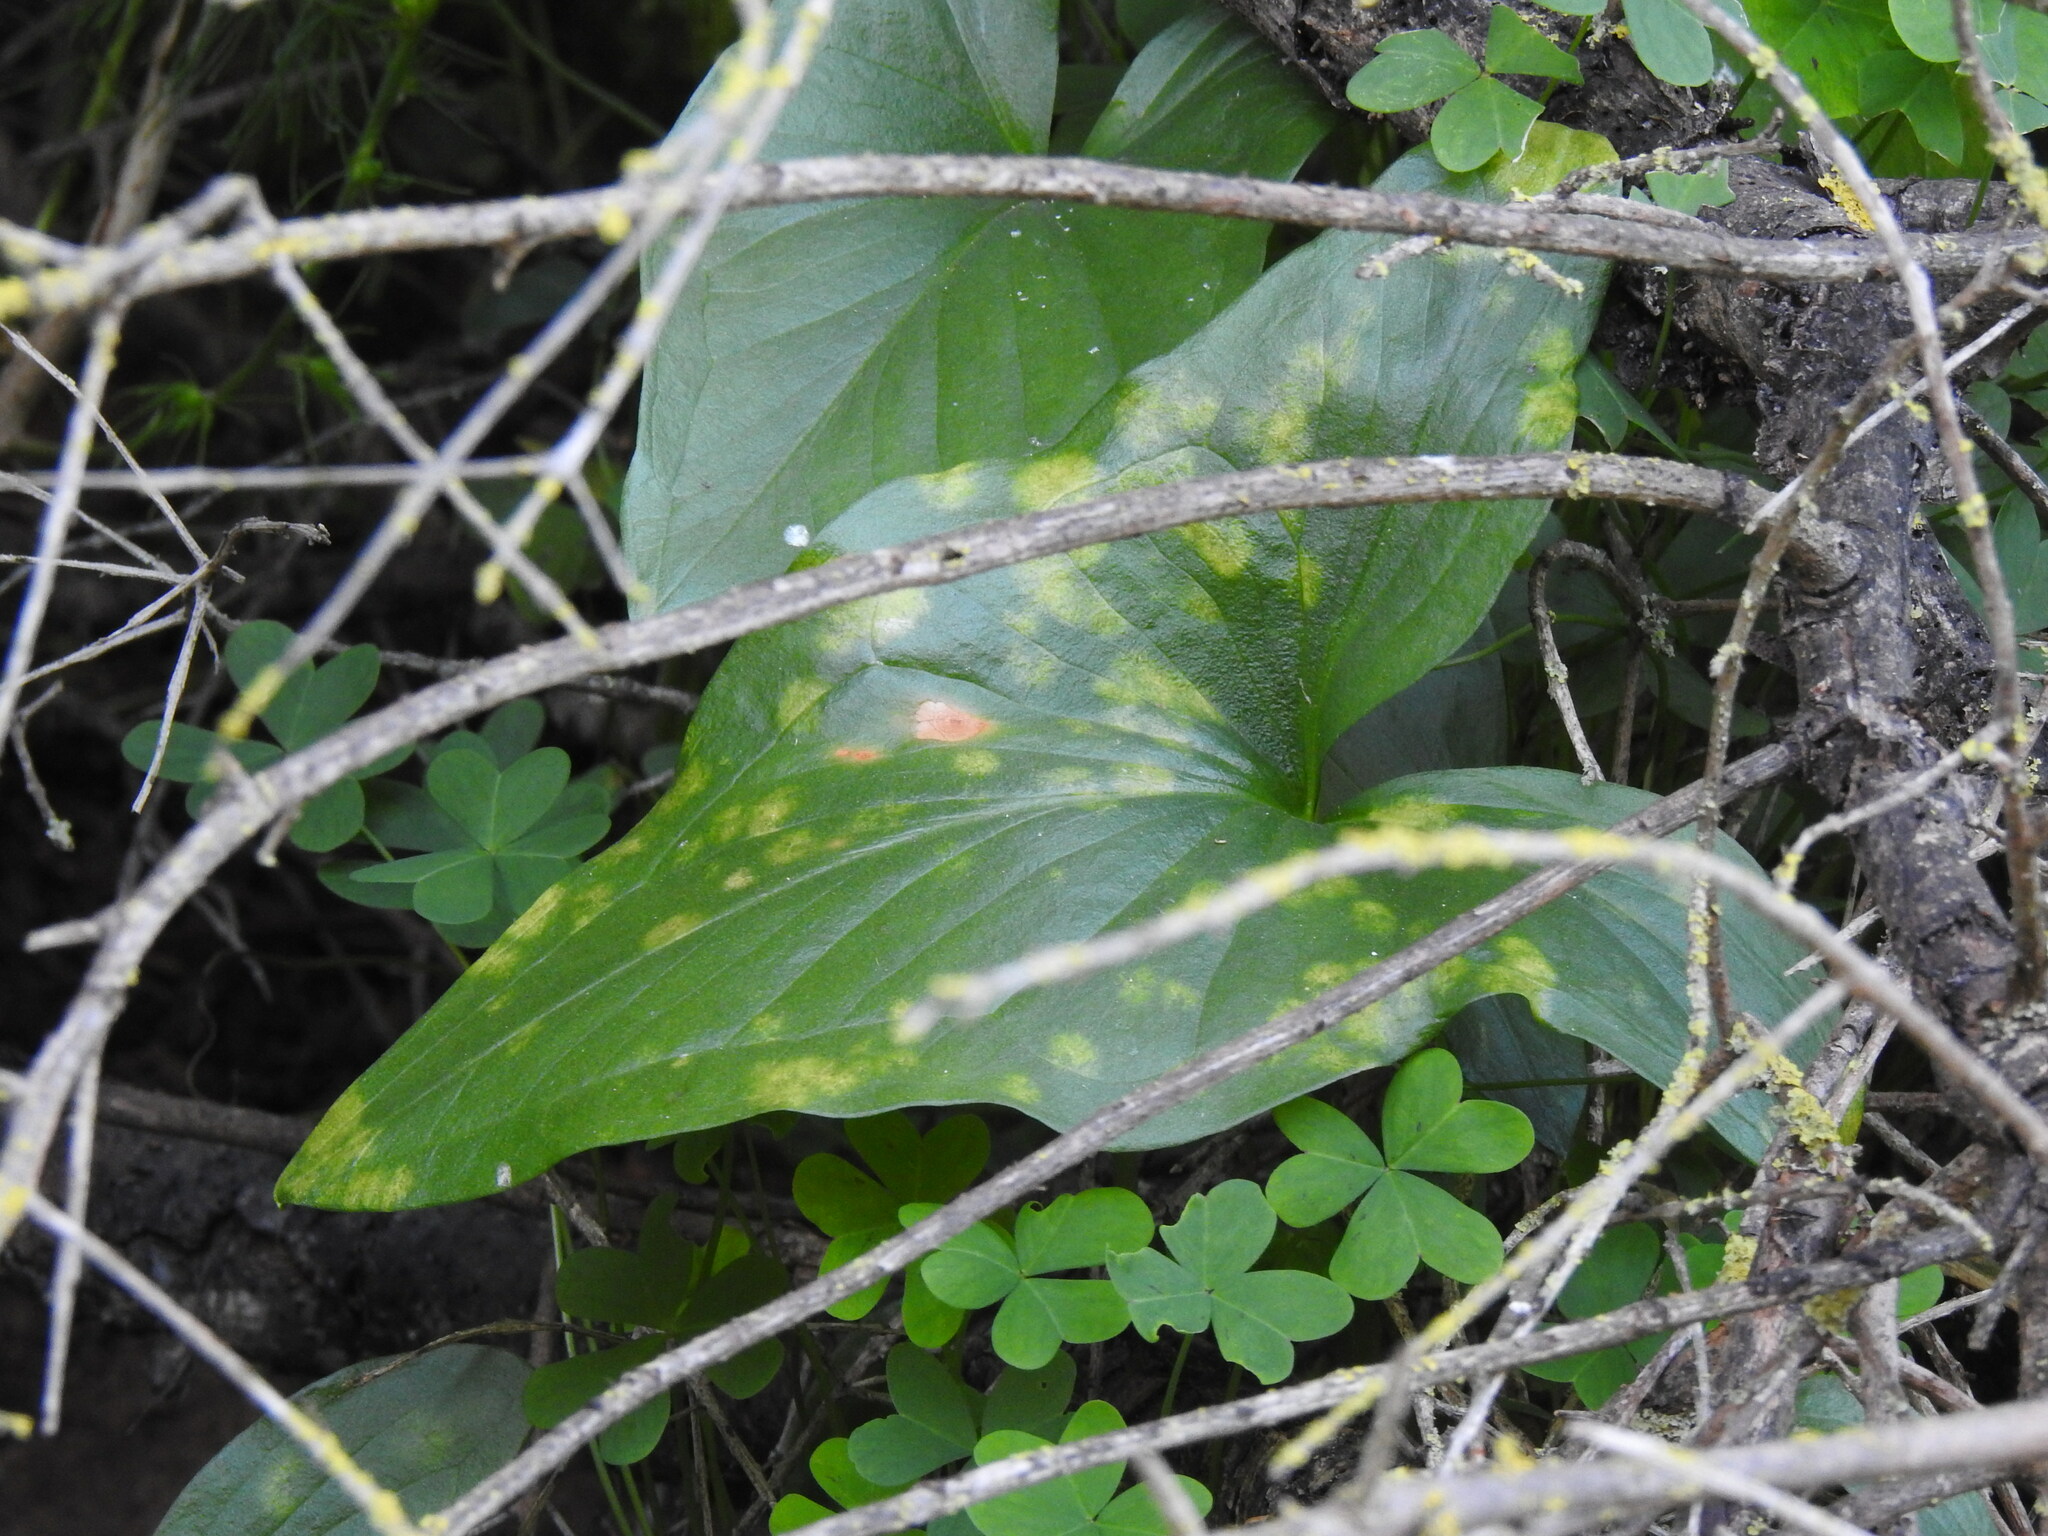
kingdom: Chromista
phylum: Ochrophyta
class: Xanthophyceae
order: Phyllosiphonales
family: Phyllosiphonaceae
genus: Phyllosiphon
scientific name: Phyllosiphon
